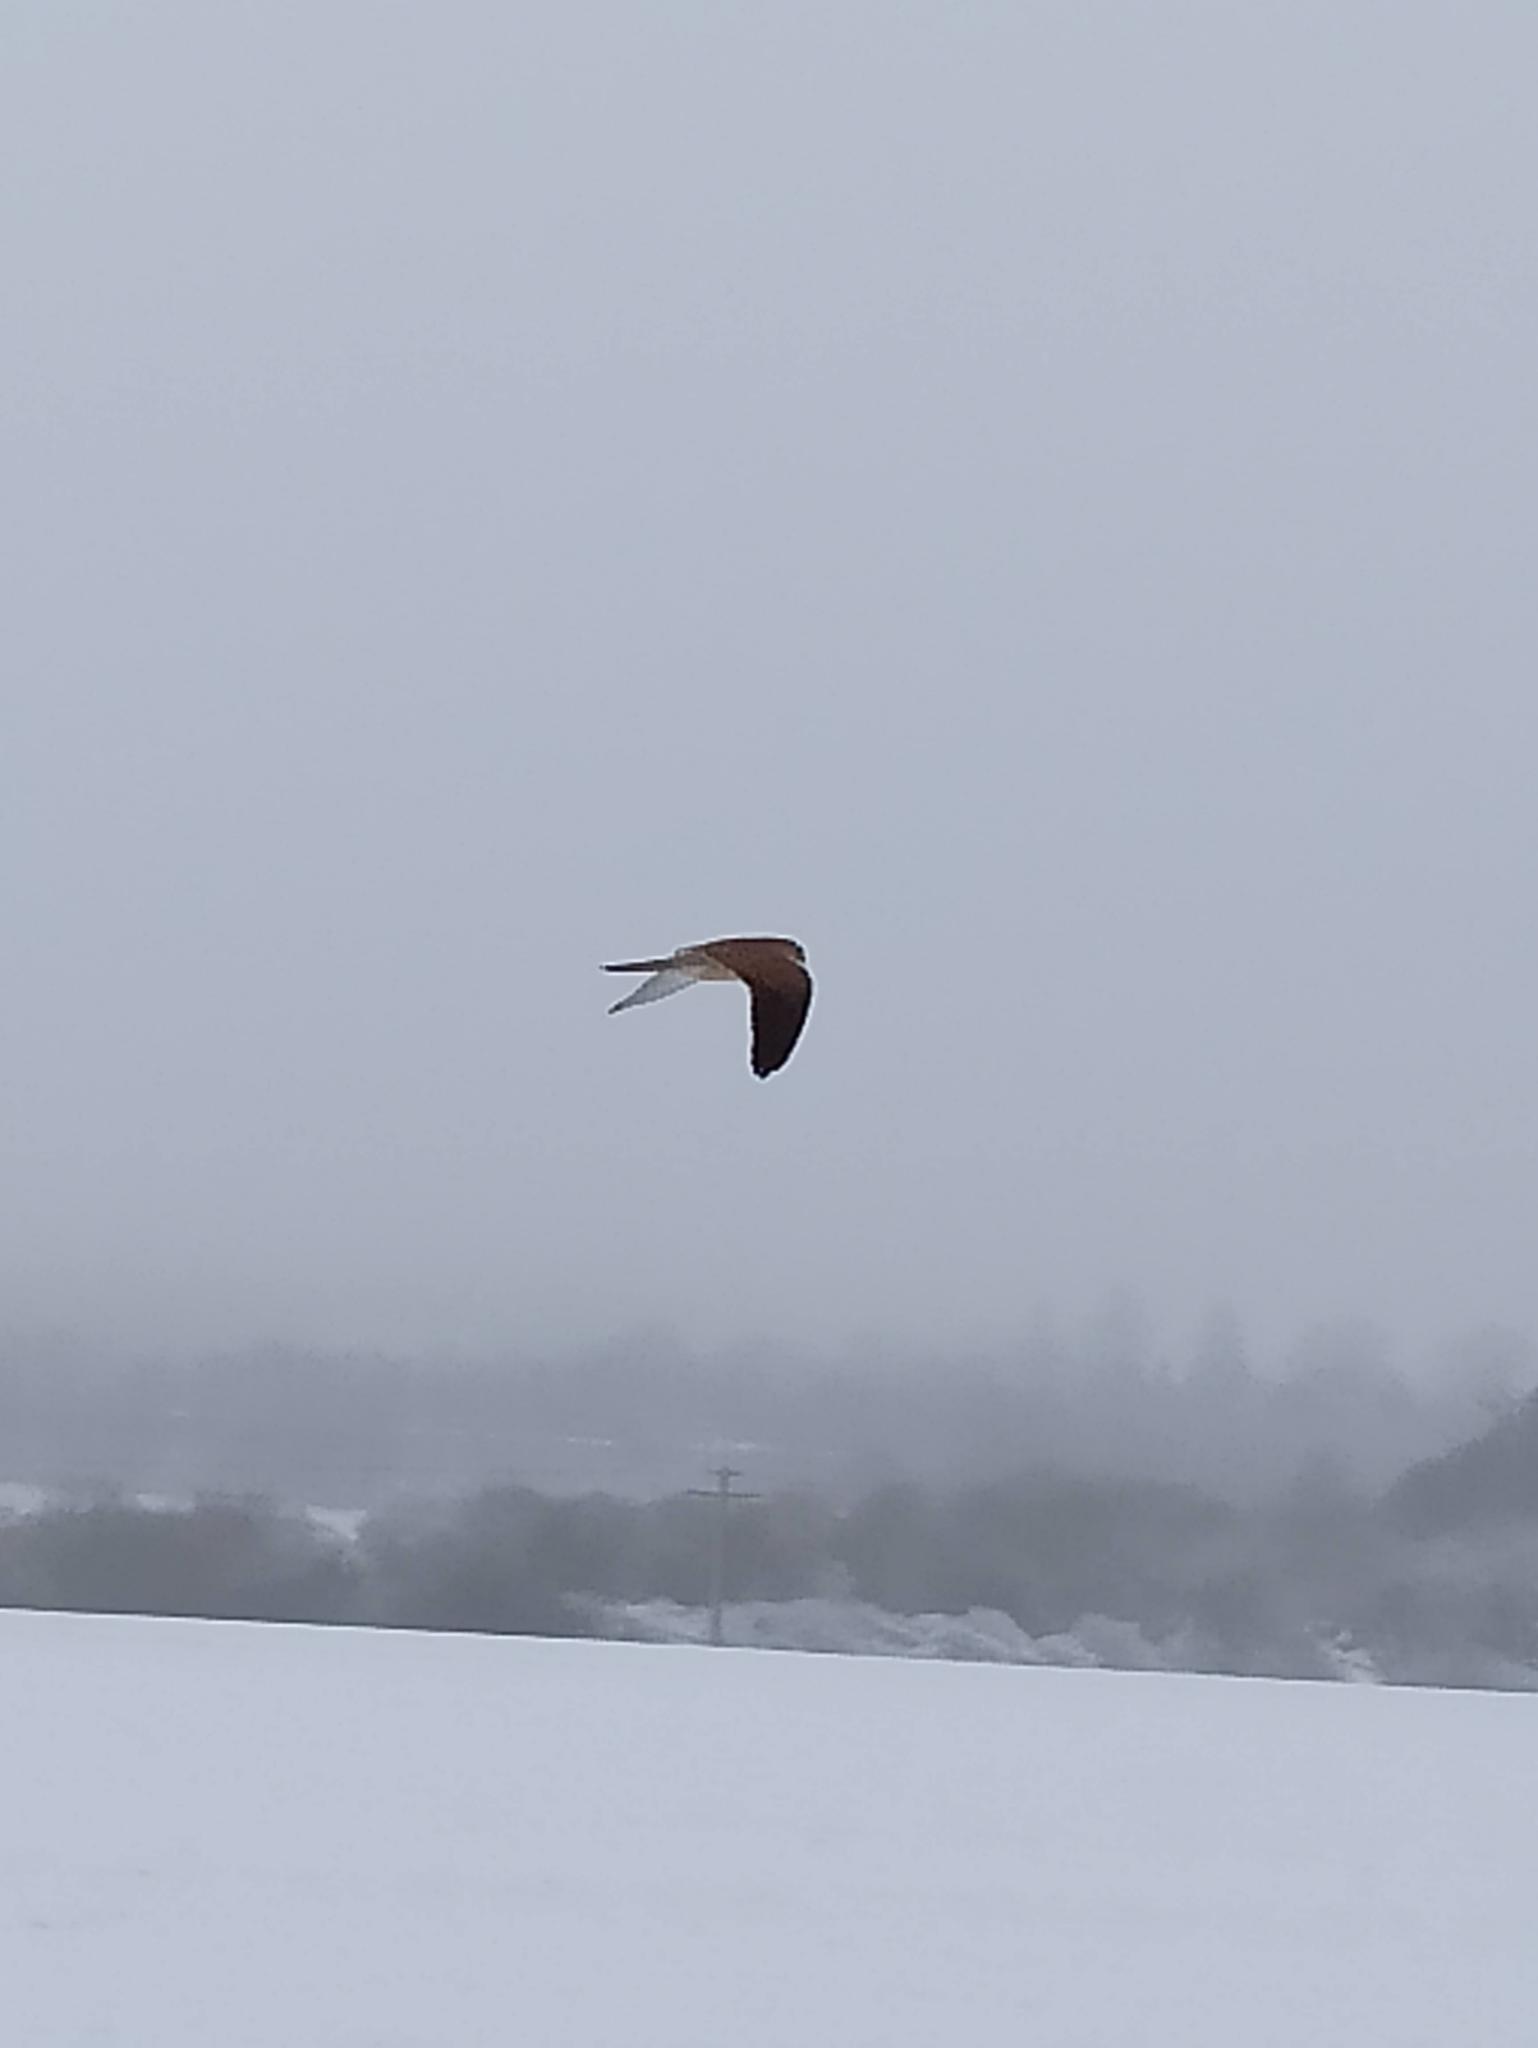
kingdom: Animalia
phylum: Chordata
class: Aves
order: Falconiformes
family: Falconidae
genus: Falco
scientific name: Falco tinnunculus
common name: Common kestrel
